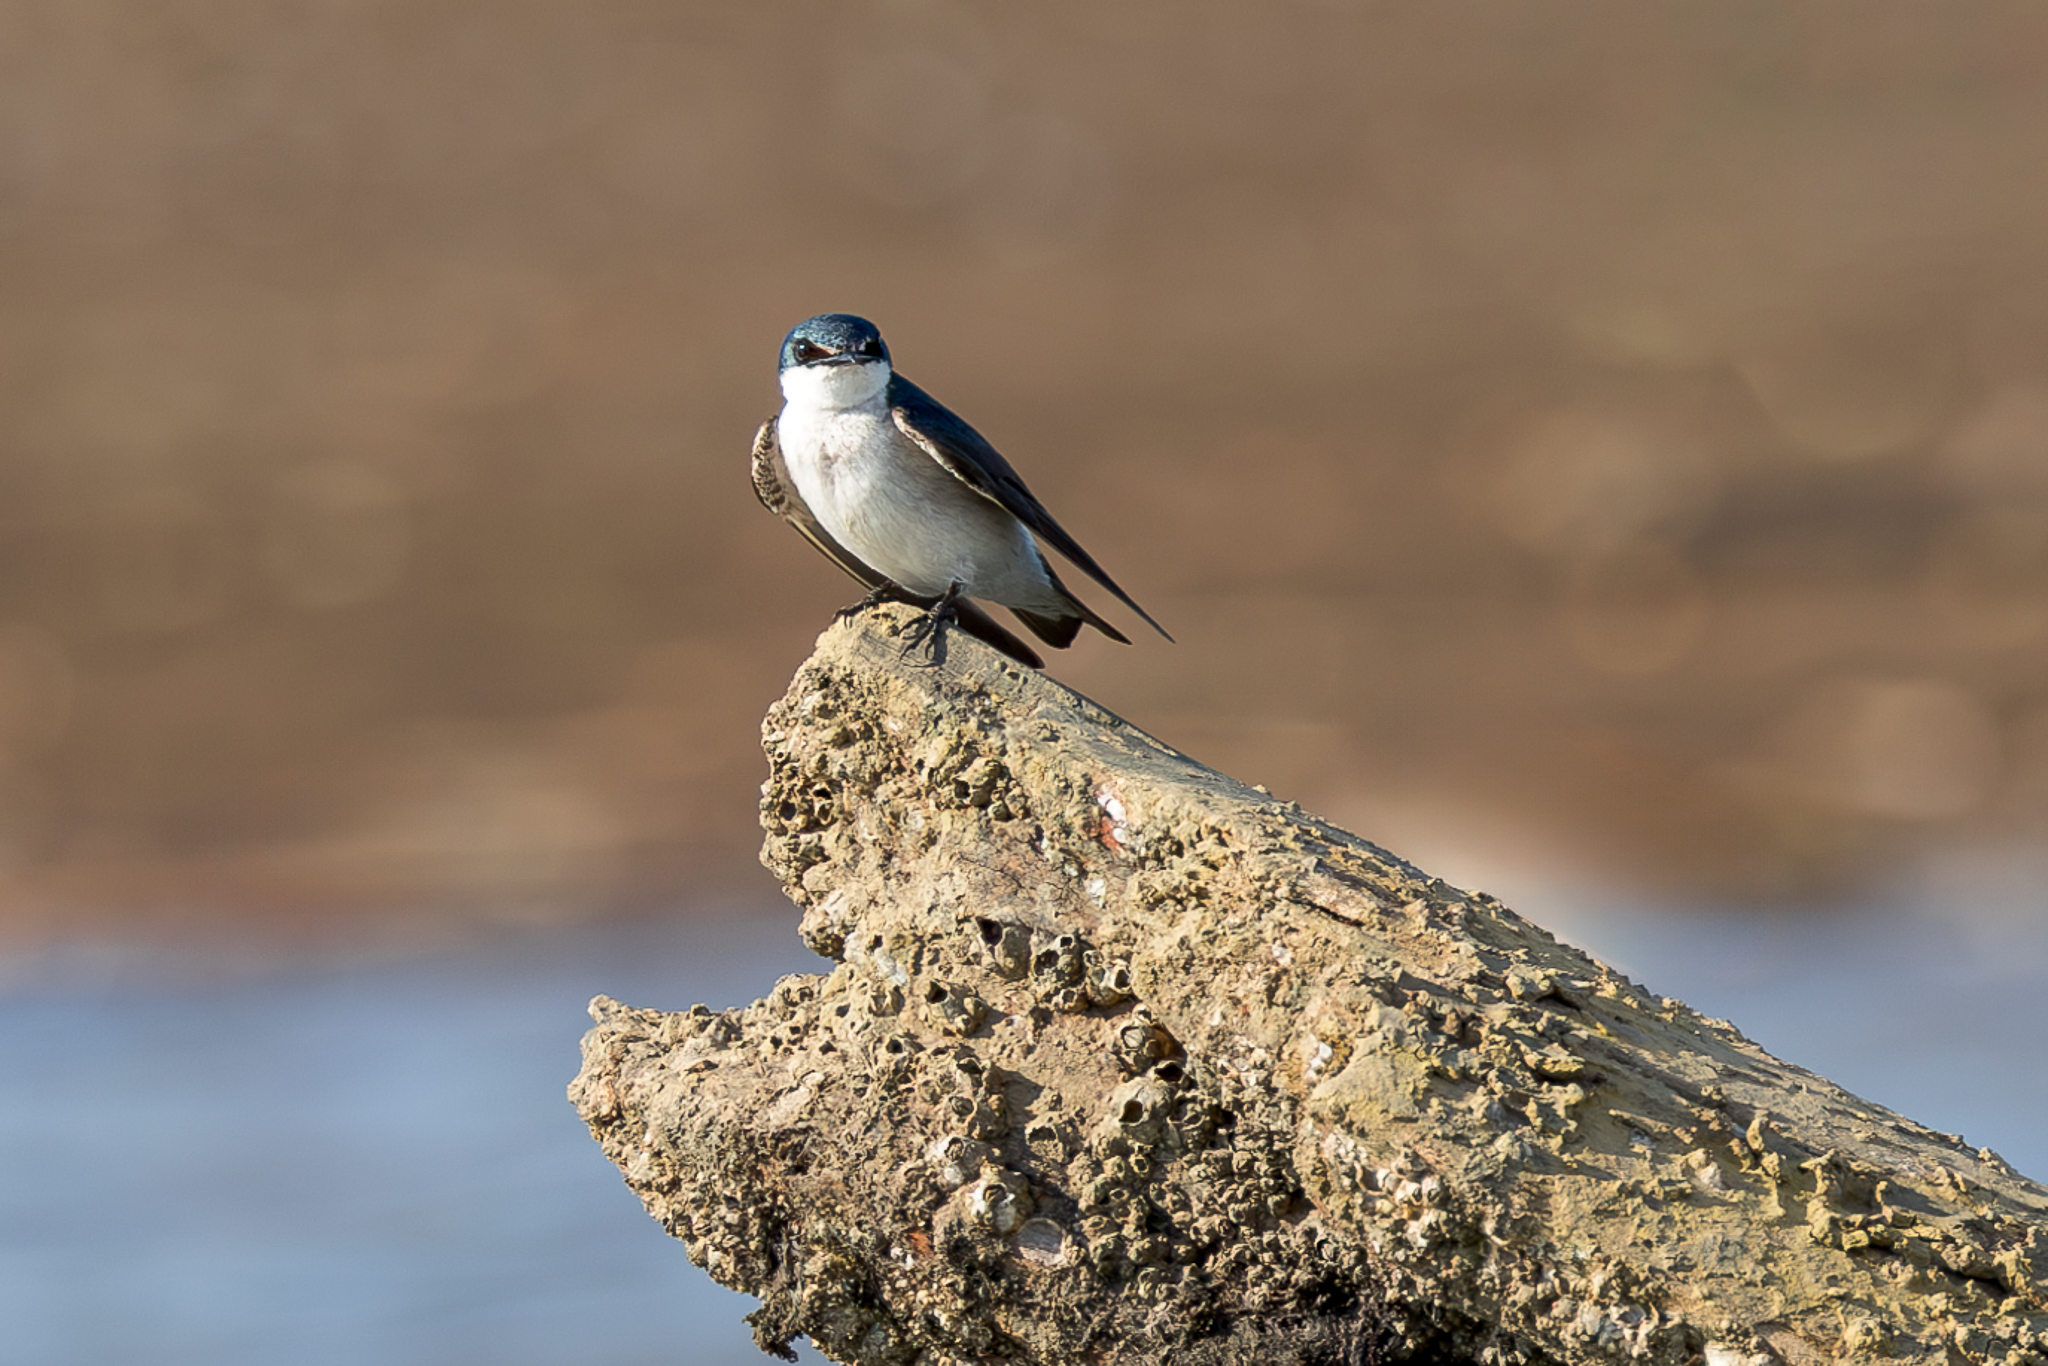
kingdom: Animalia
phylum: Chordata
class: Aves
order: Passeriformes
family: Hirundinidae
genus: Tachycineta
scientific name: Tachycineta albilinea
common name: Mangrove swallow
